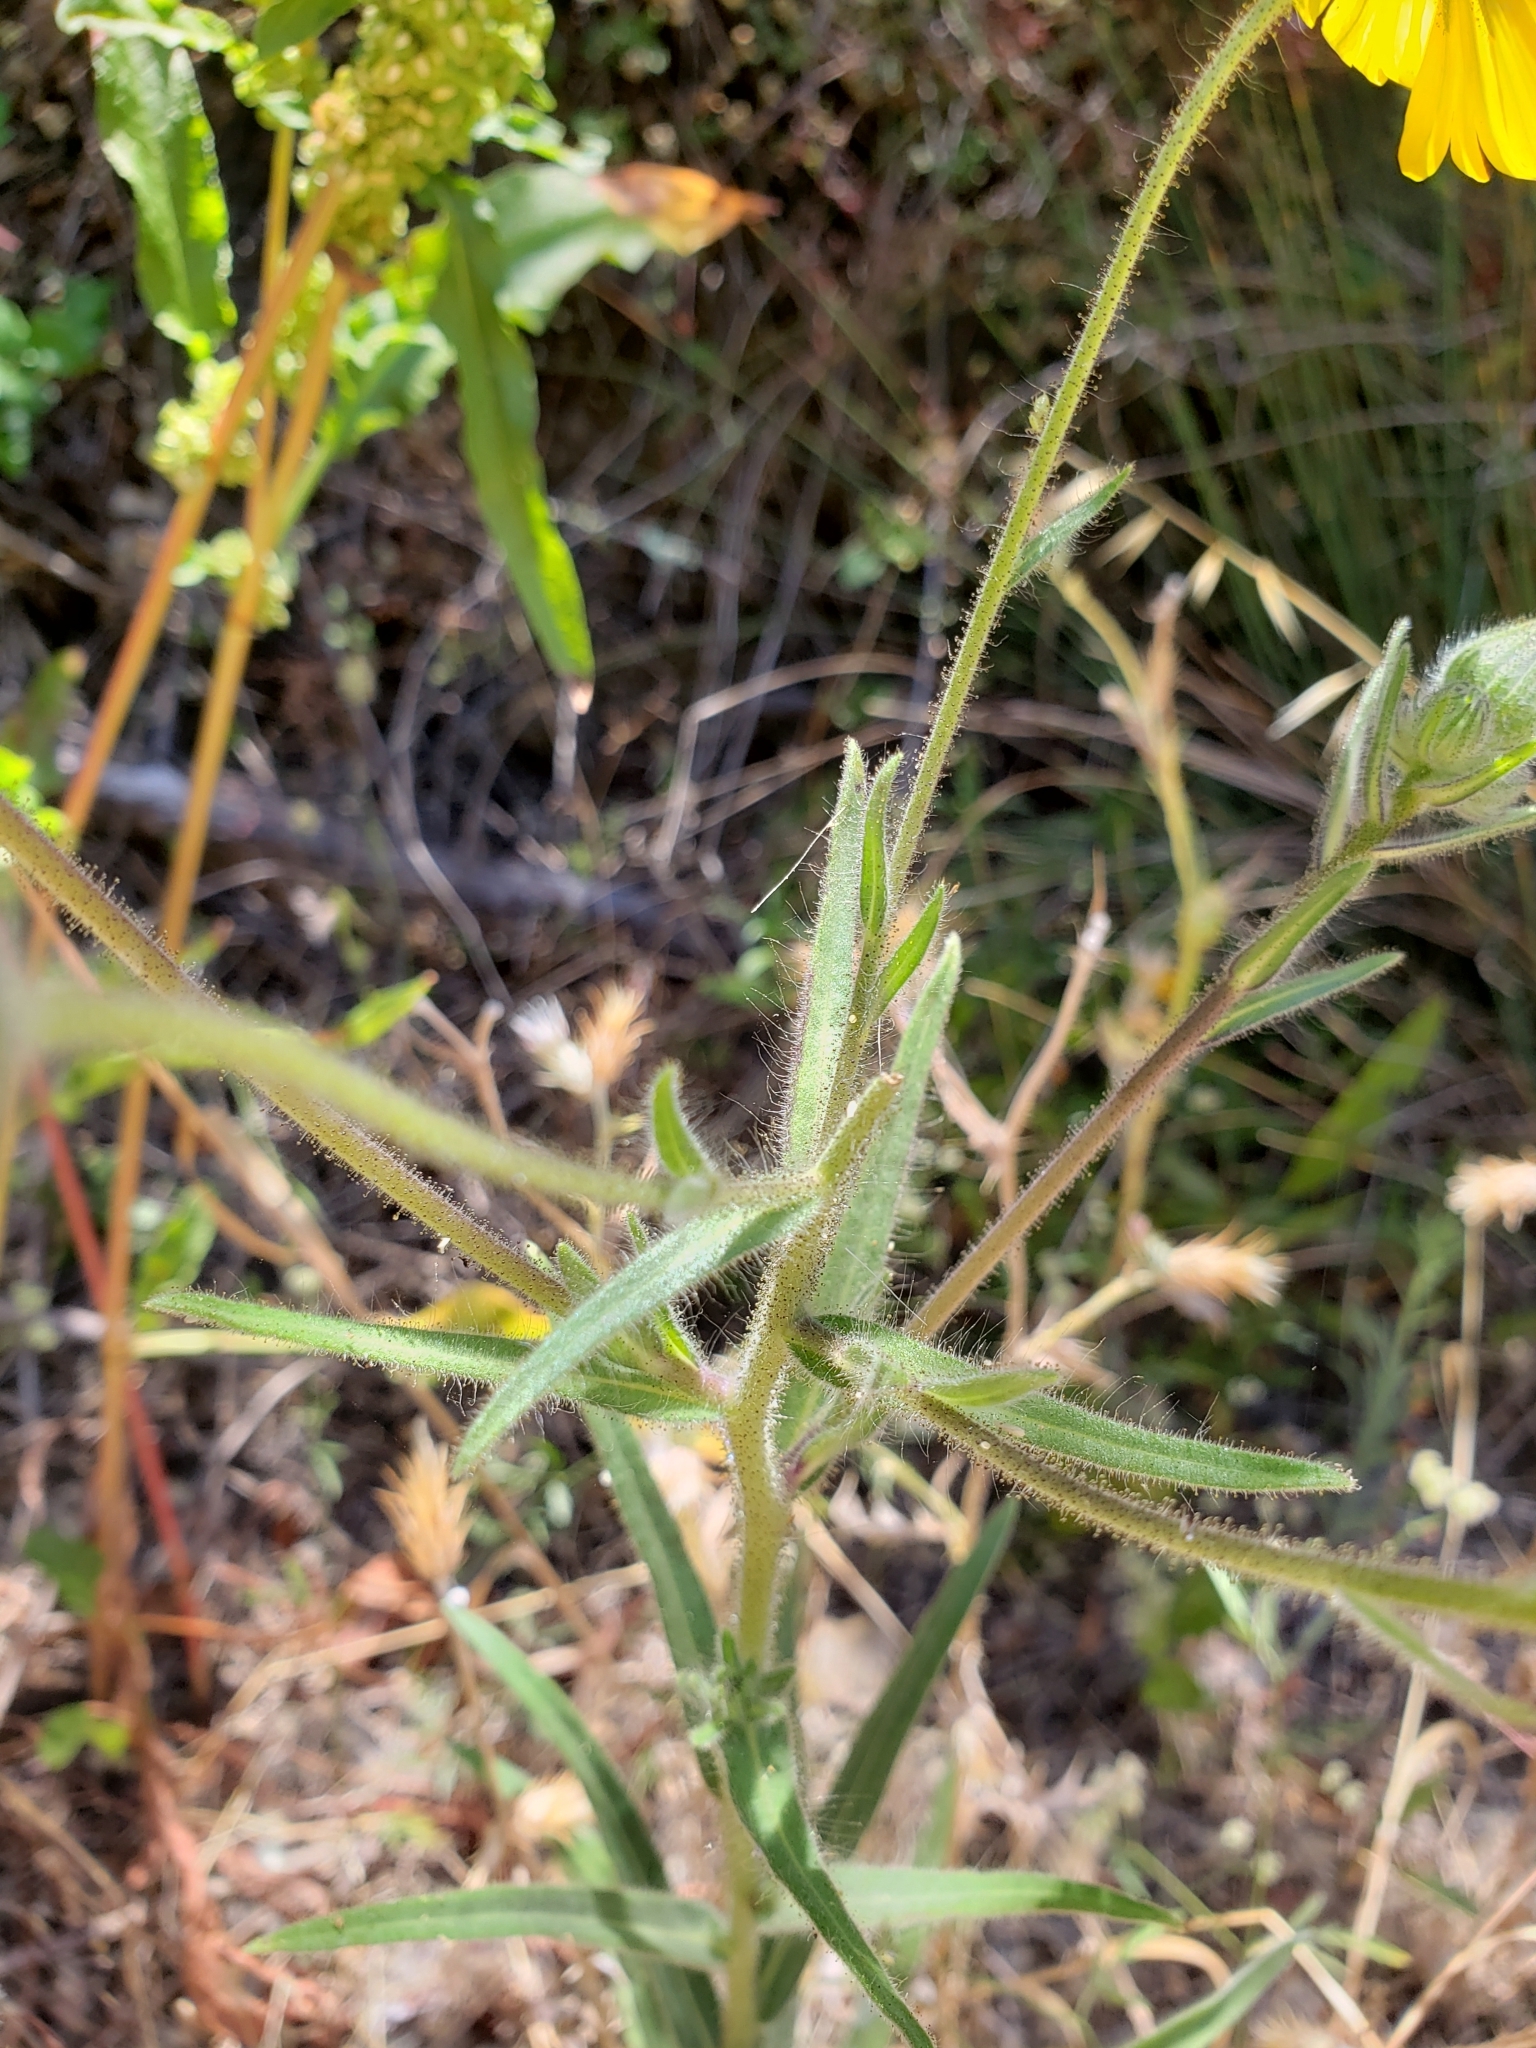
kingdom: Plantae
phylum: Tracheophyta
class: Magnoliopsida
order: Asterales
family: Asteraceae
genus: Madia
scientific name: Madia elegans
